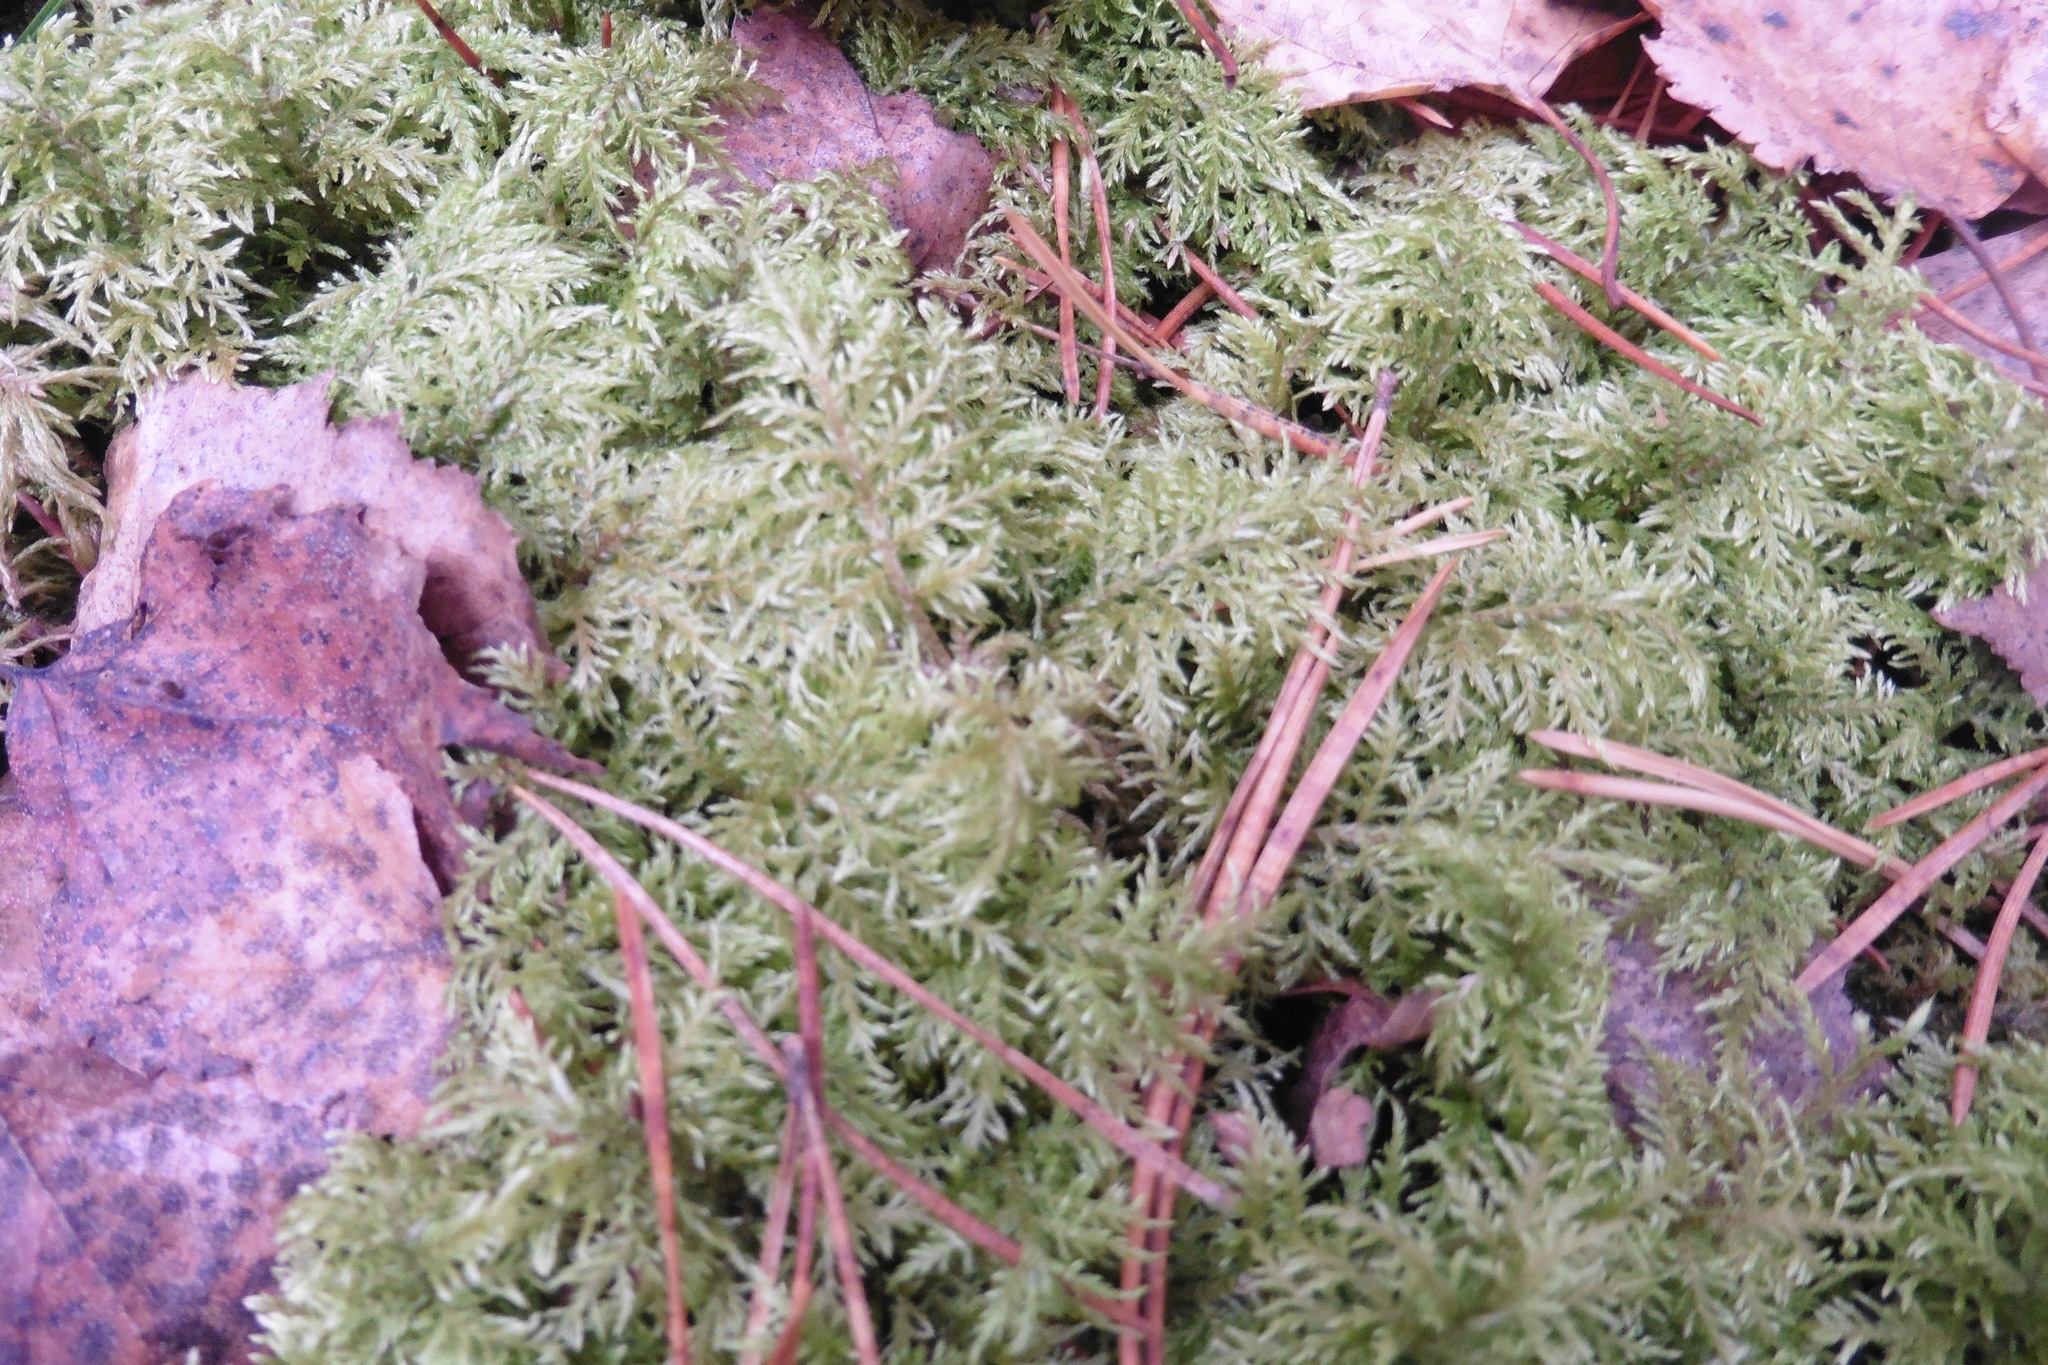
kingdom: Plantae
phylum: Bryophyta
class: Bryopsida
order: Hypnales
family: Hylocomiaceae
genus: Hylocomium
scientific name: Hylocomium splendens
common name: Stairstep moss
